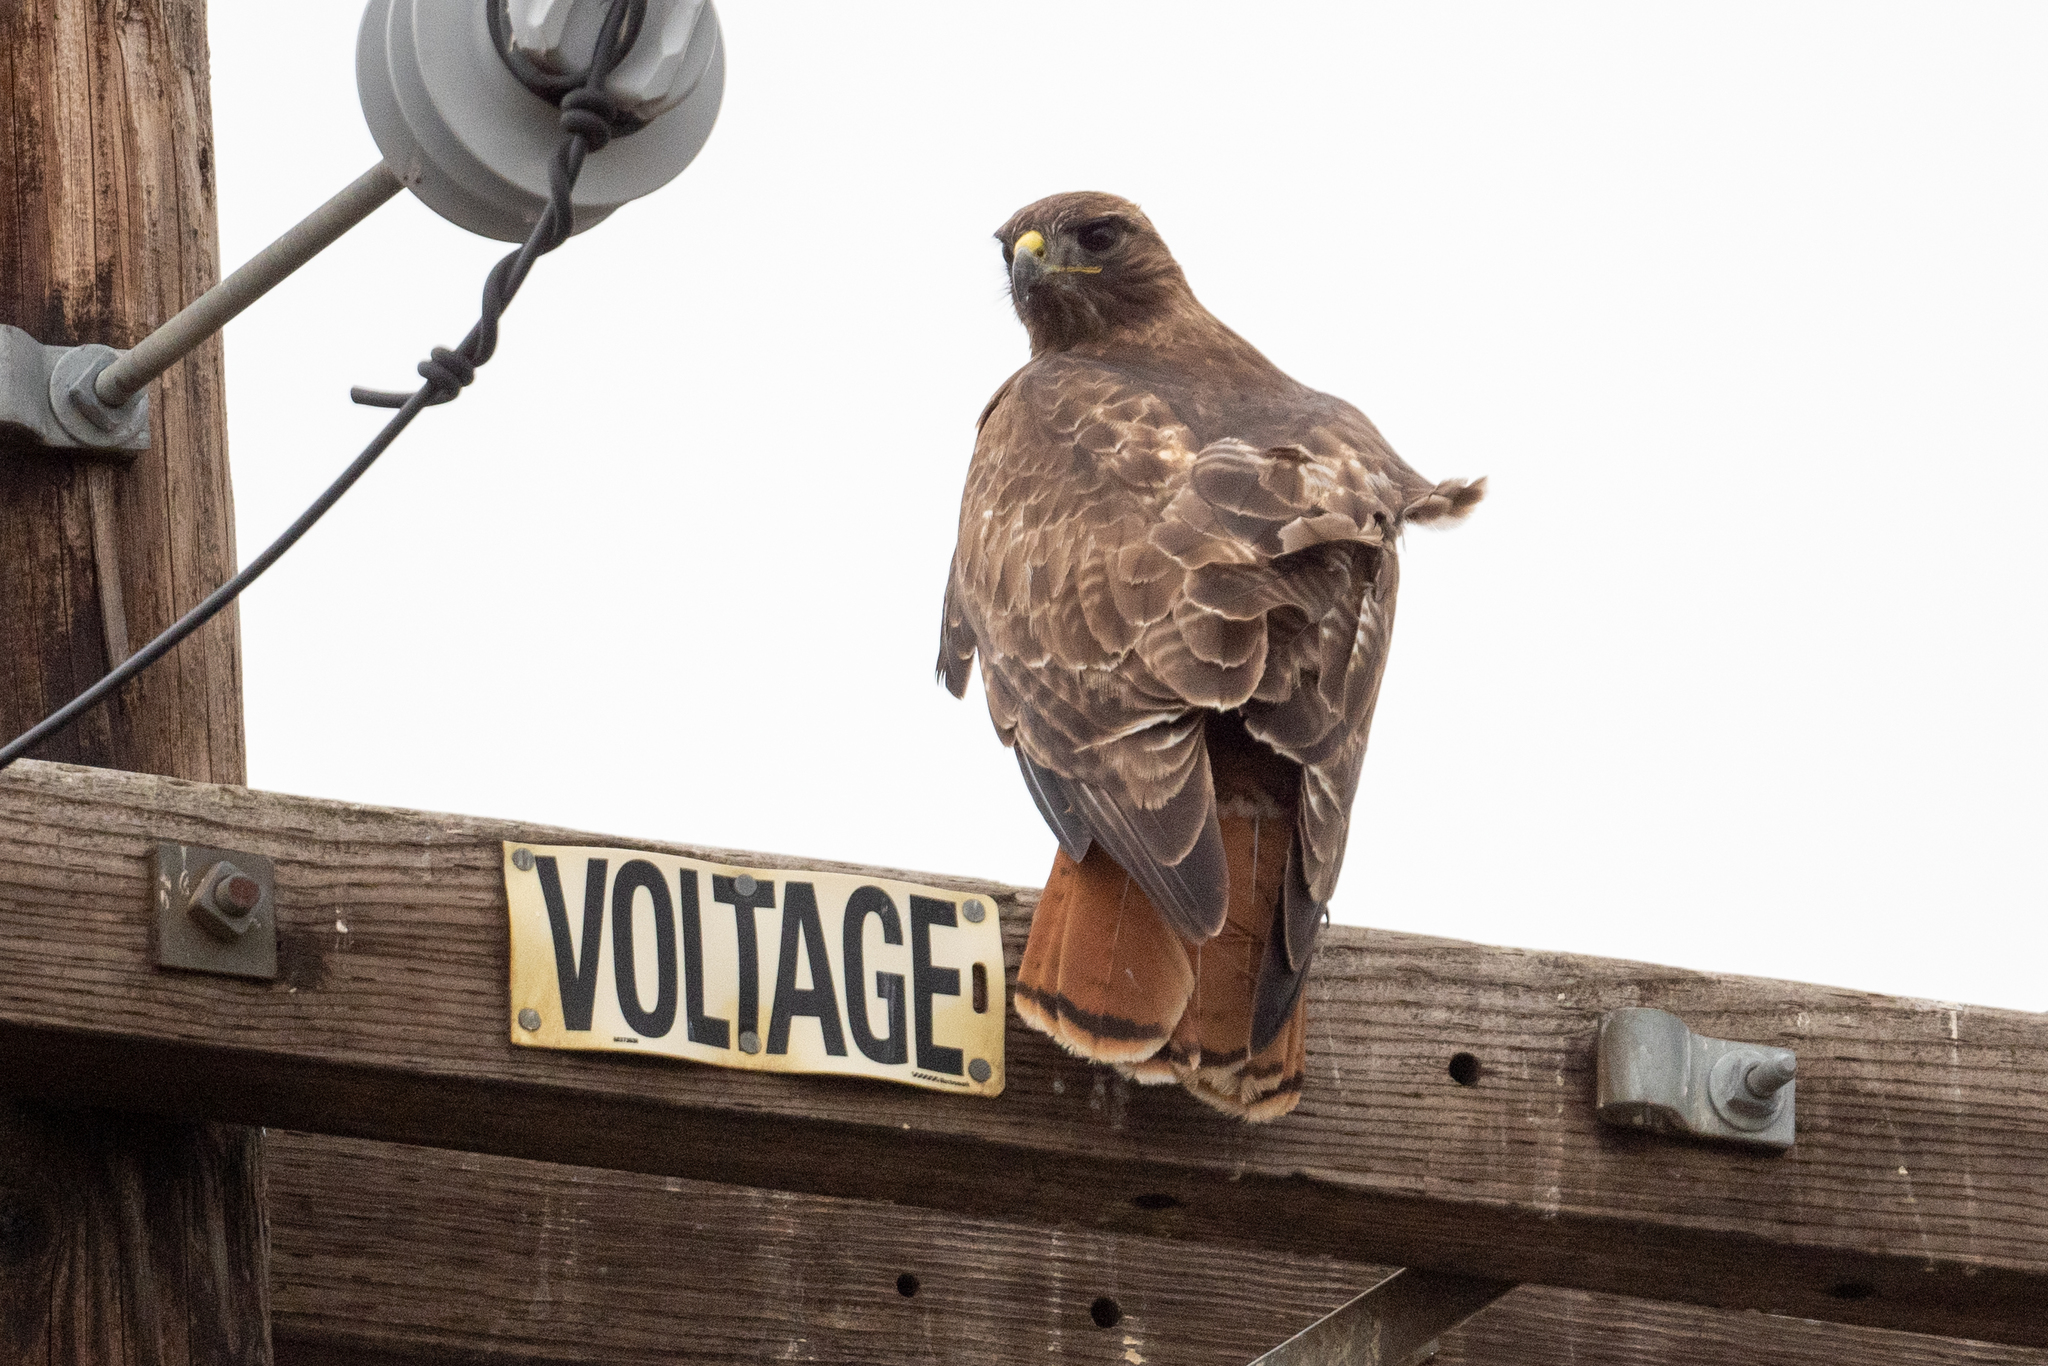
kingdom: Animalia
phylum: Chordata
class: Aves
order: Accipitriformes
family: Accipitridae
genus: Buteo
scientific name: Buteo jamaicensis
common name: Red-tailed hawk
